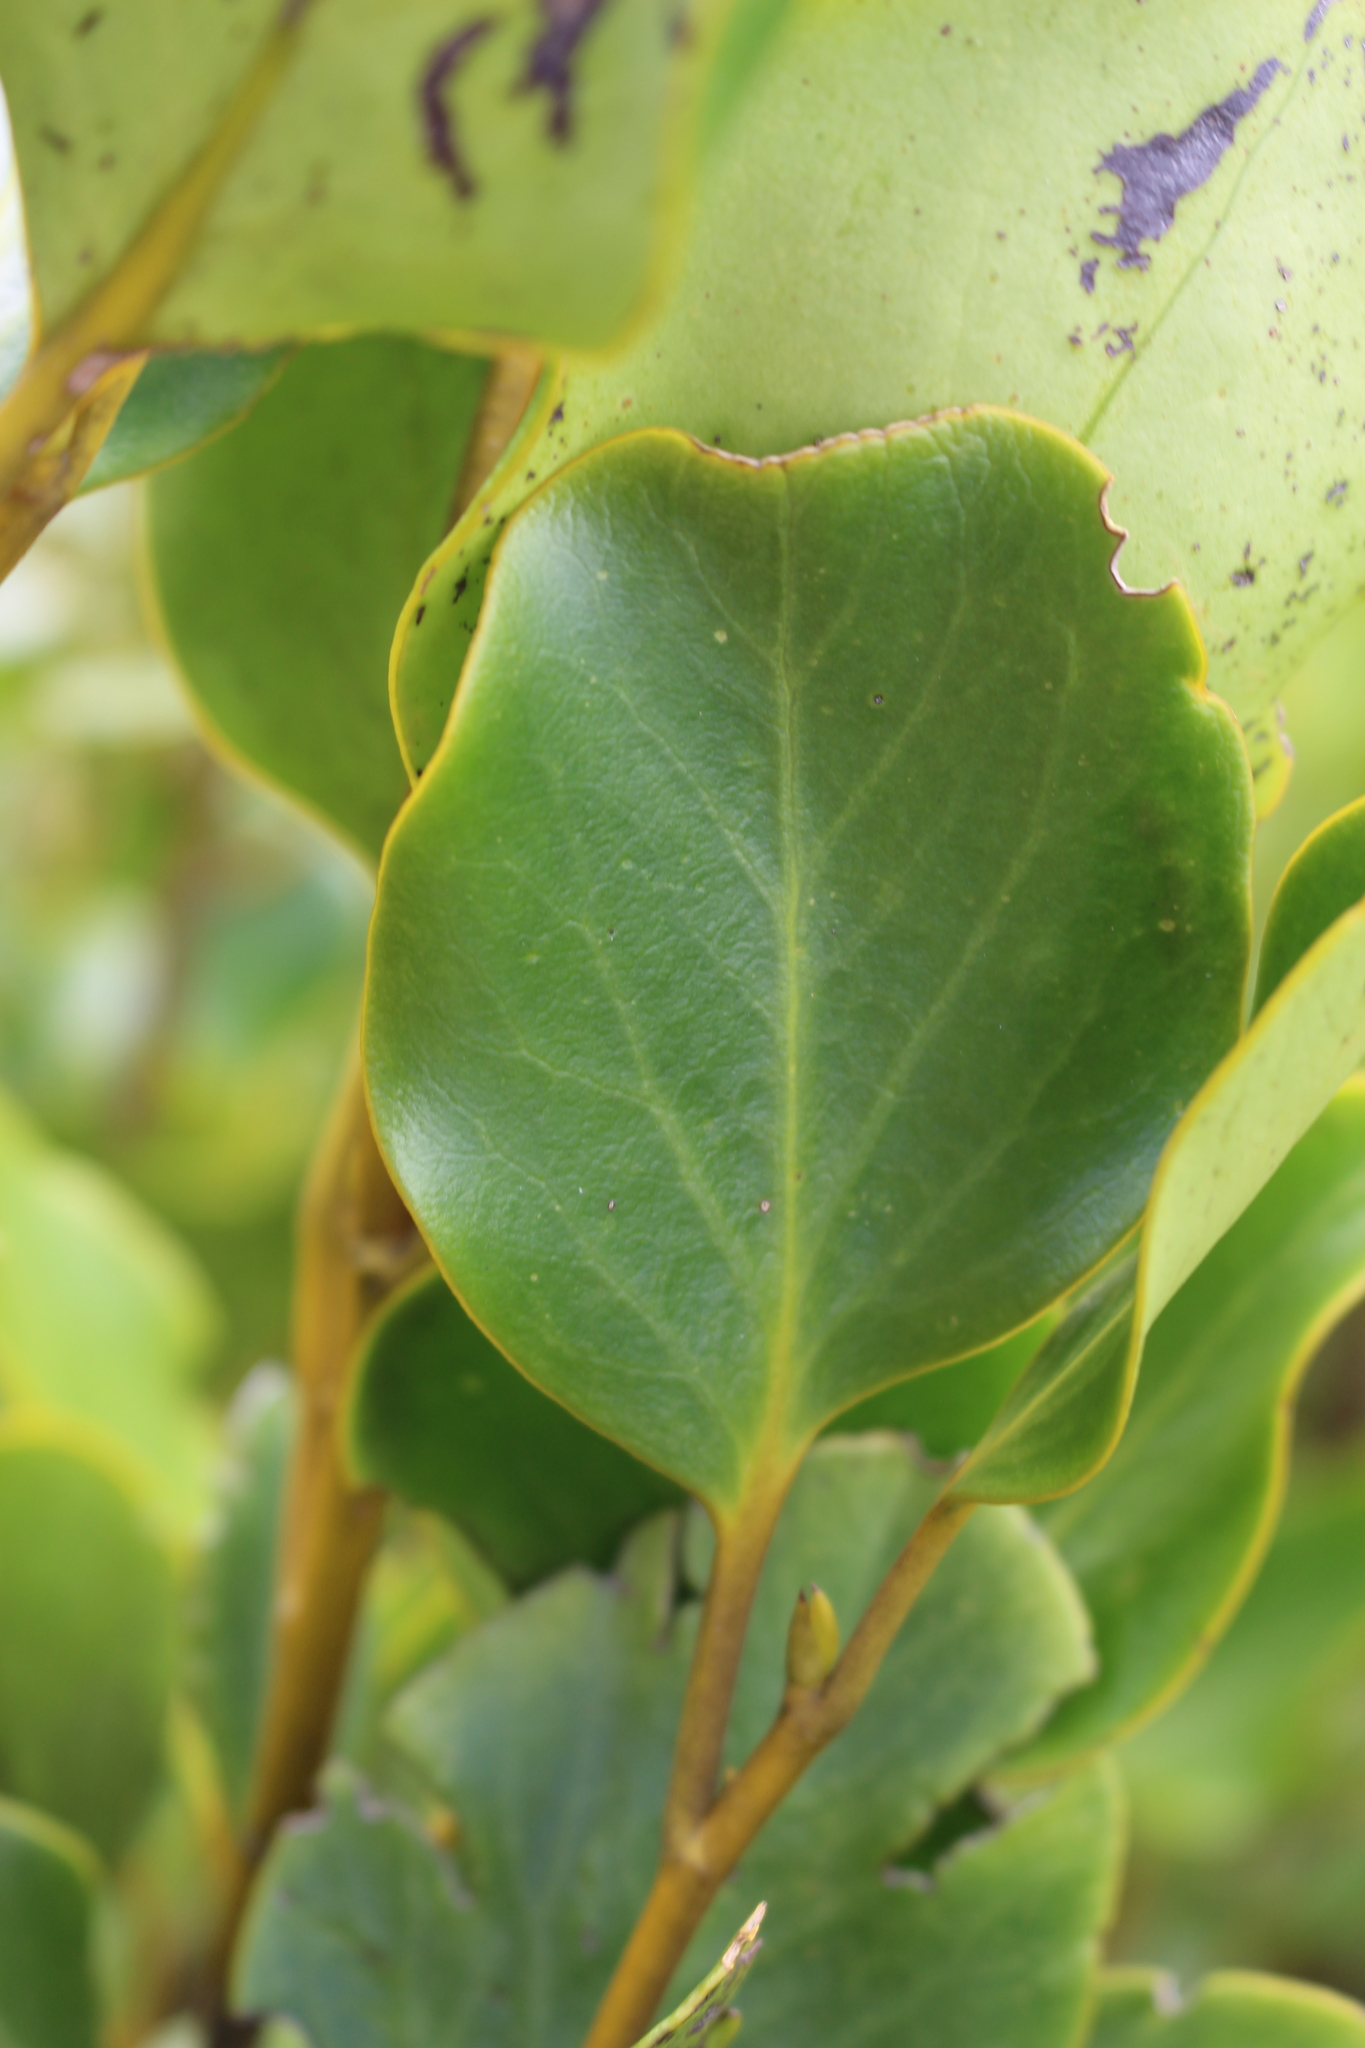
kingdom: Plantae
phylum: Tracheophyta
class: Magnoliopsida
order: Apiales
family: Griseliniaceae
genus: Griselinia
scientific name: Griselinia littoralis
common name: New zealand broadleaf
